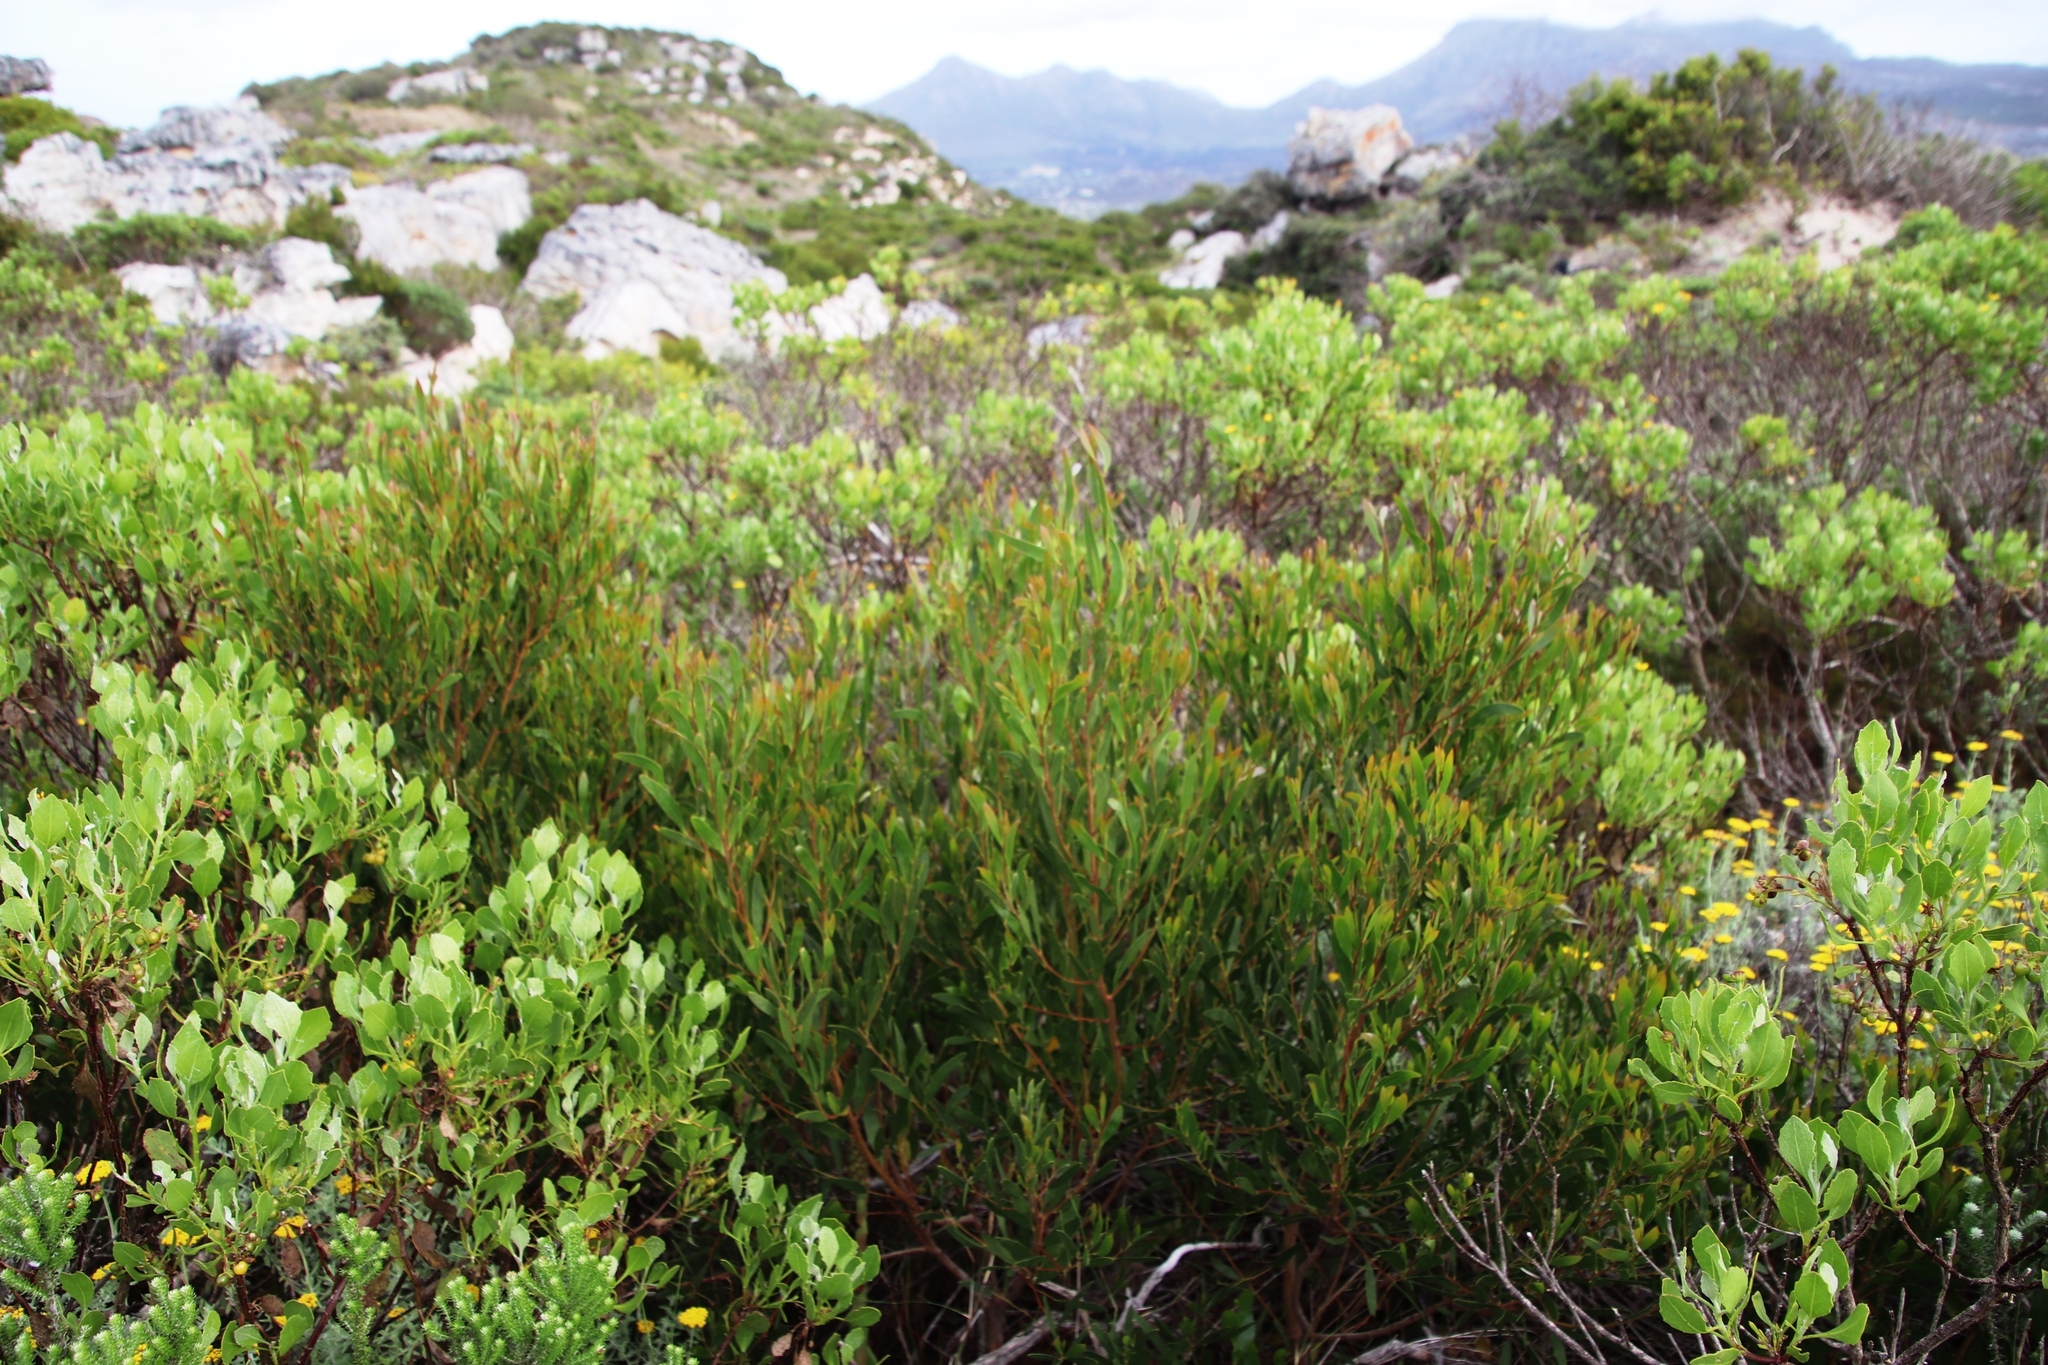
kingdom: Plantae
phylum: Tracheophyta
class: Magnoliopsida
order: Fabales
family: Fabaceae
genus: Acacia
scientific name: Acacia cyclops
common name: Coastal wattle
